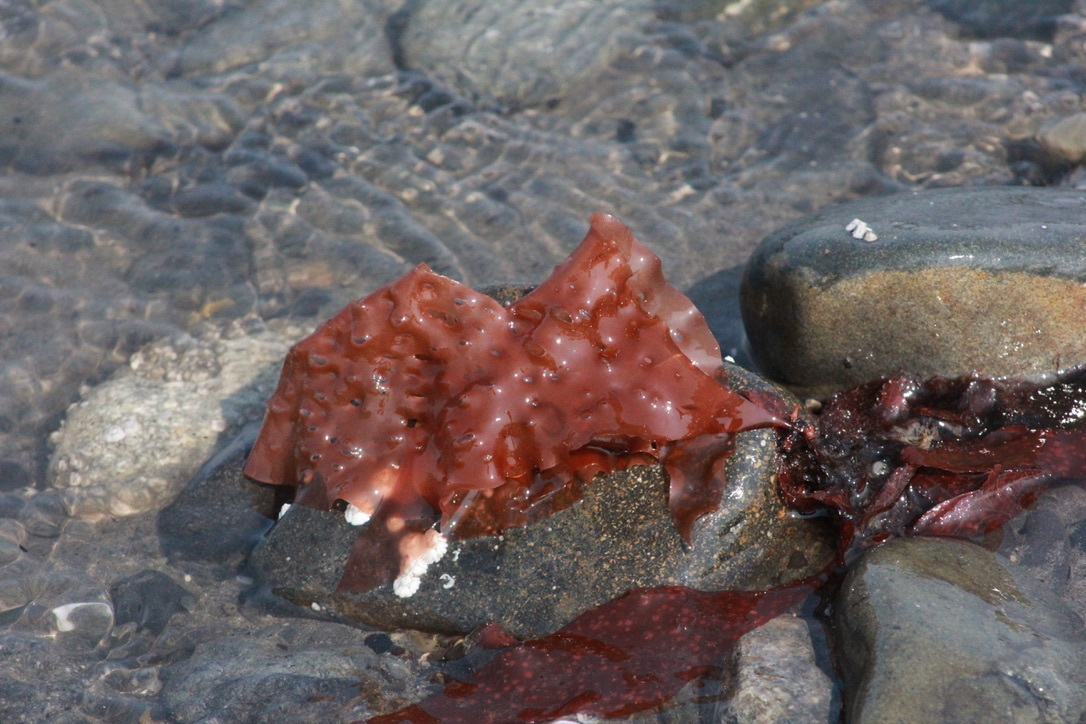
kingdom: Plantae
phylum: Rhodophyta
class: Florideophyceae
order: Rhodymeniales
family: Rhodymeniaceae
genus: Sparlingia
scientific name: Sparlingia pertusa
